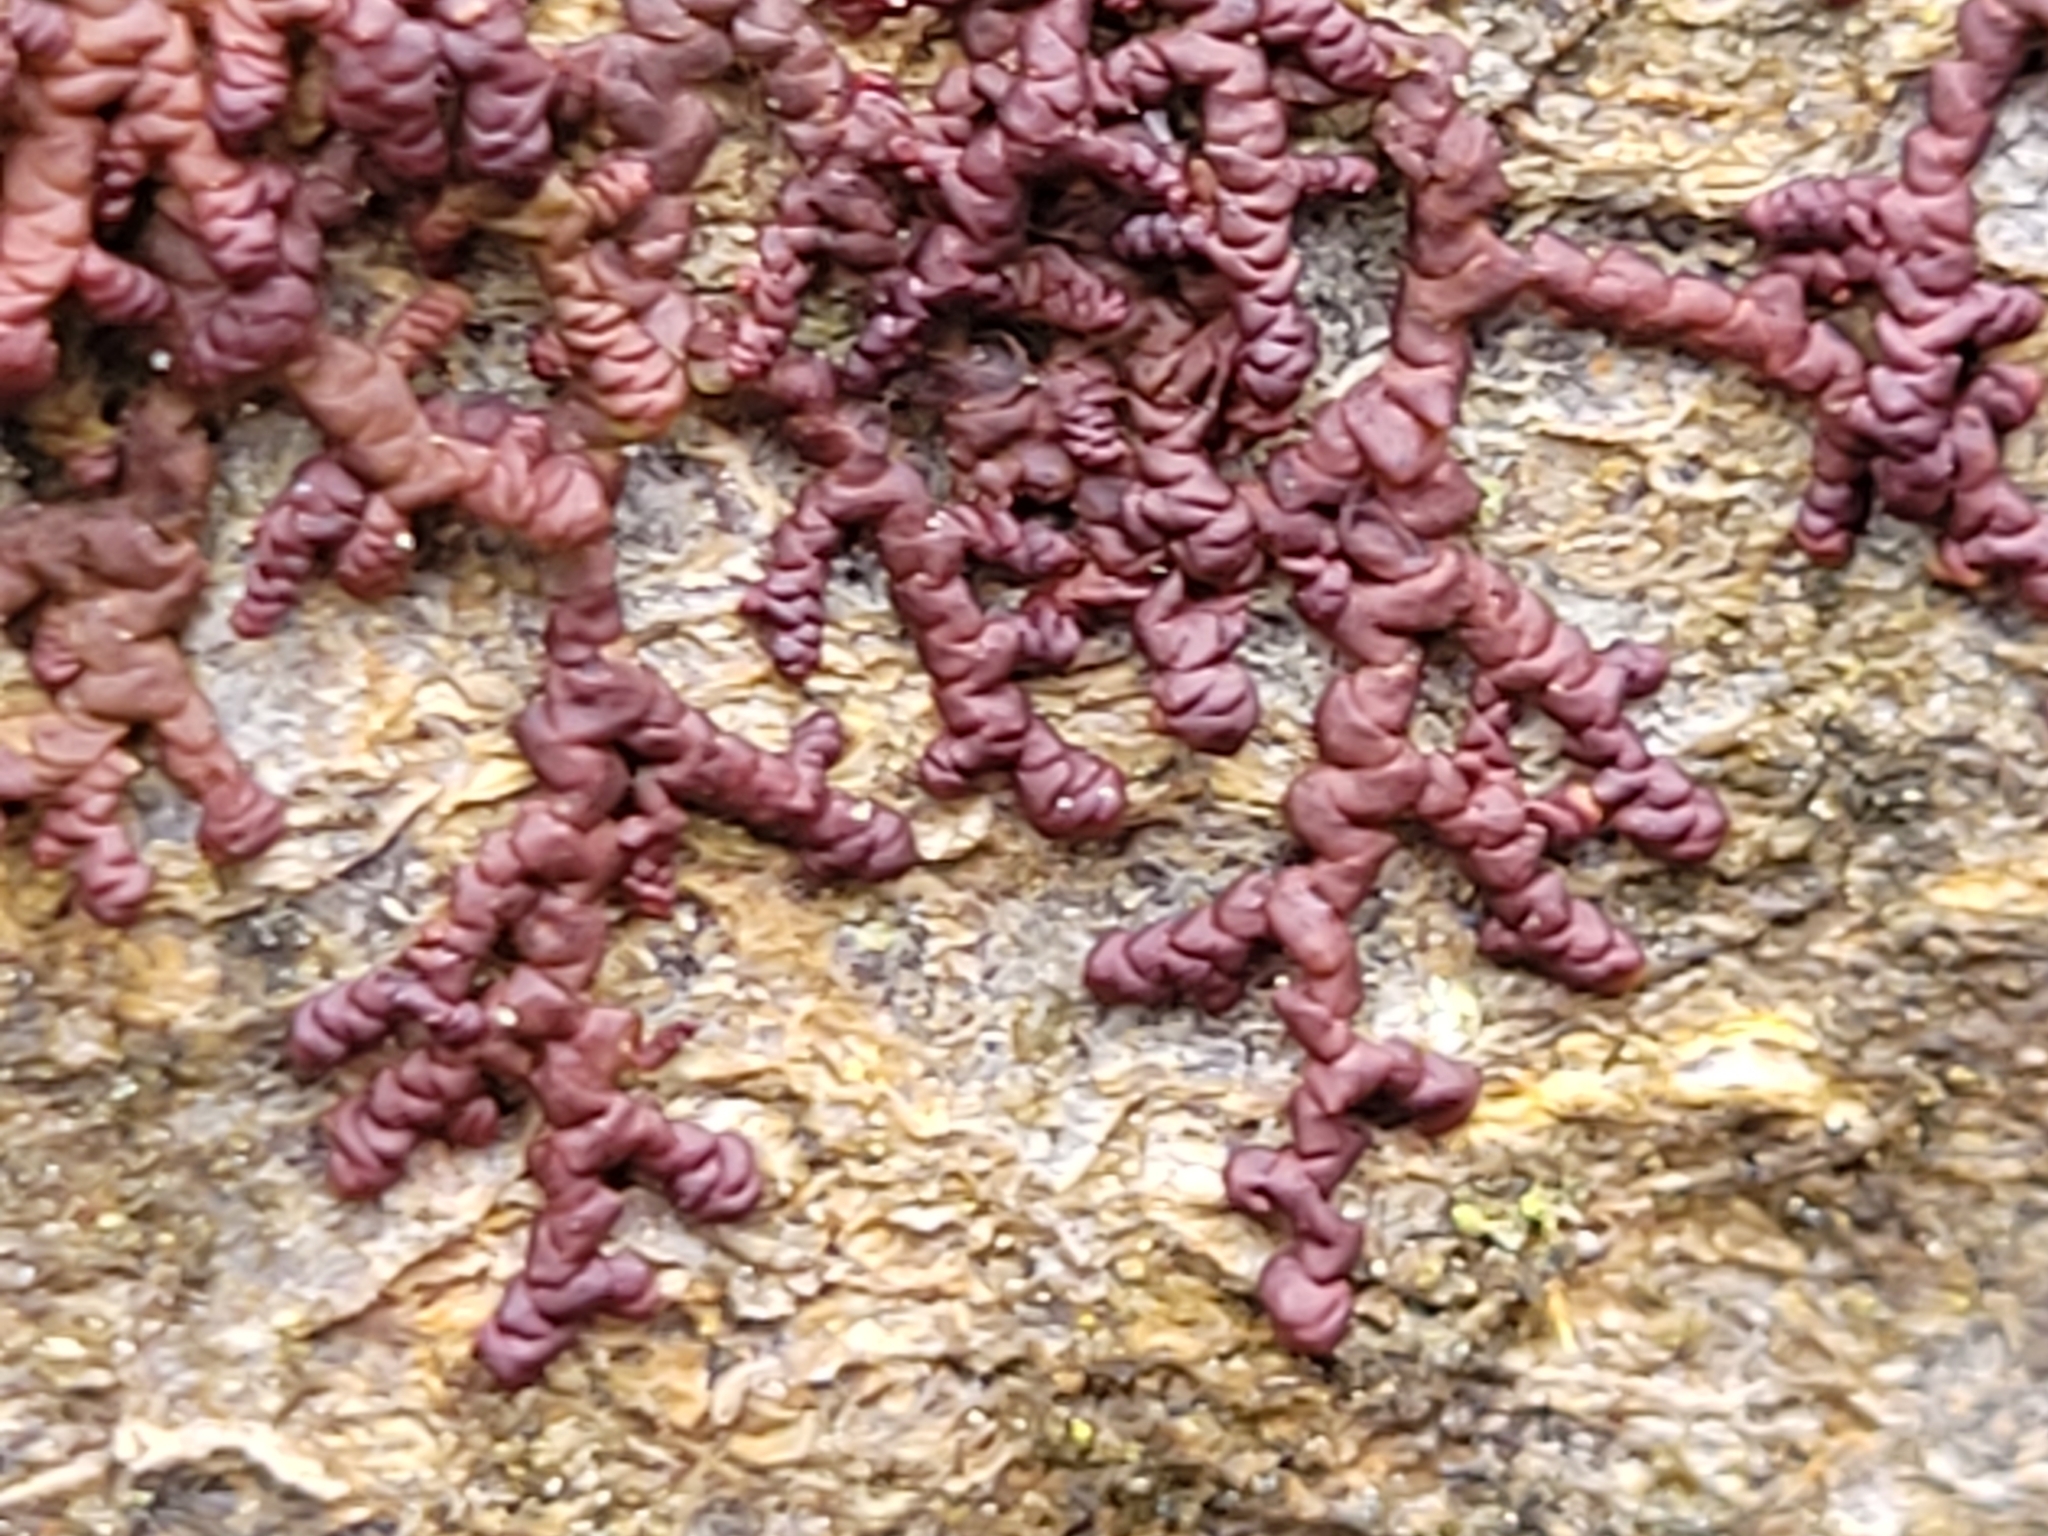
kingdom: Plantae
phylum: Marchantiophyta
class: Jungermanniopsida
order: Porellales
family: Frullaniaceae
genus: Frullania
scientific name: Frullania dilatata
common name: Dilated scalewort
